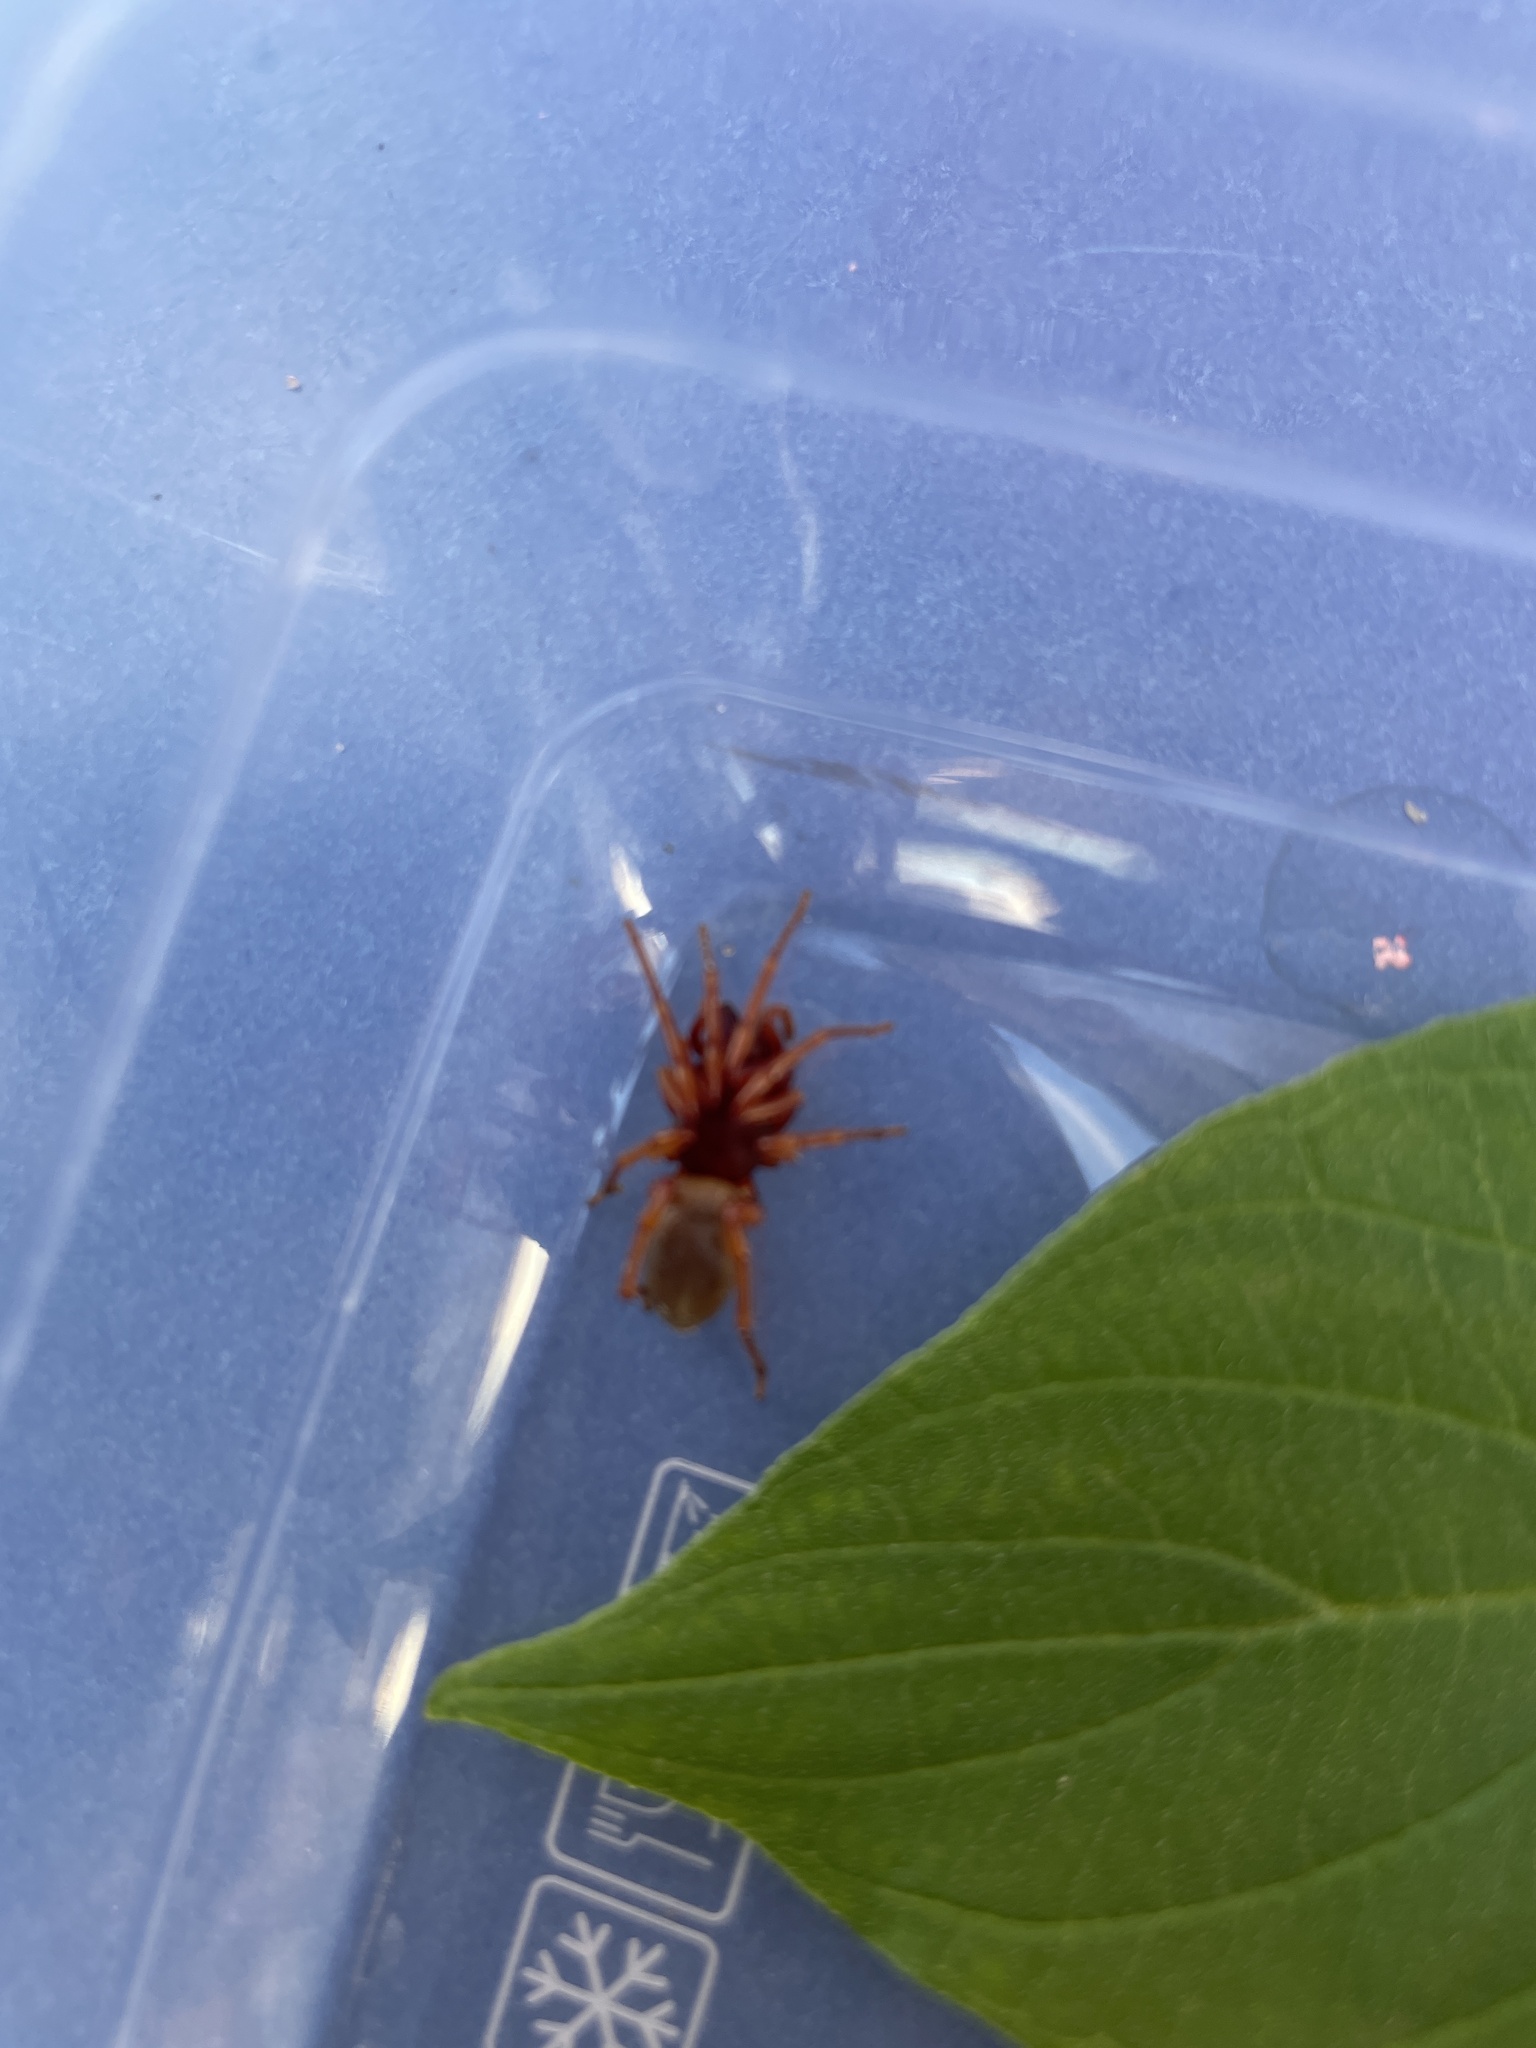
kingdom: Animalia
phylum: Arthropoda
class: Arachnida
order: Araneae
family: Dysderidae
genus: Dysdera
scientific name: Dysdera crocata
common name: Woodlouse spider
